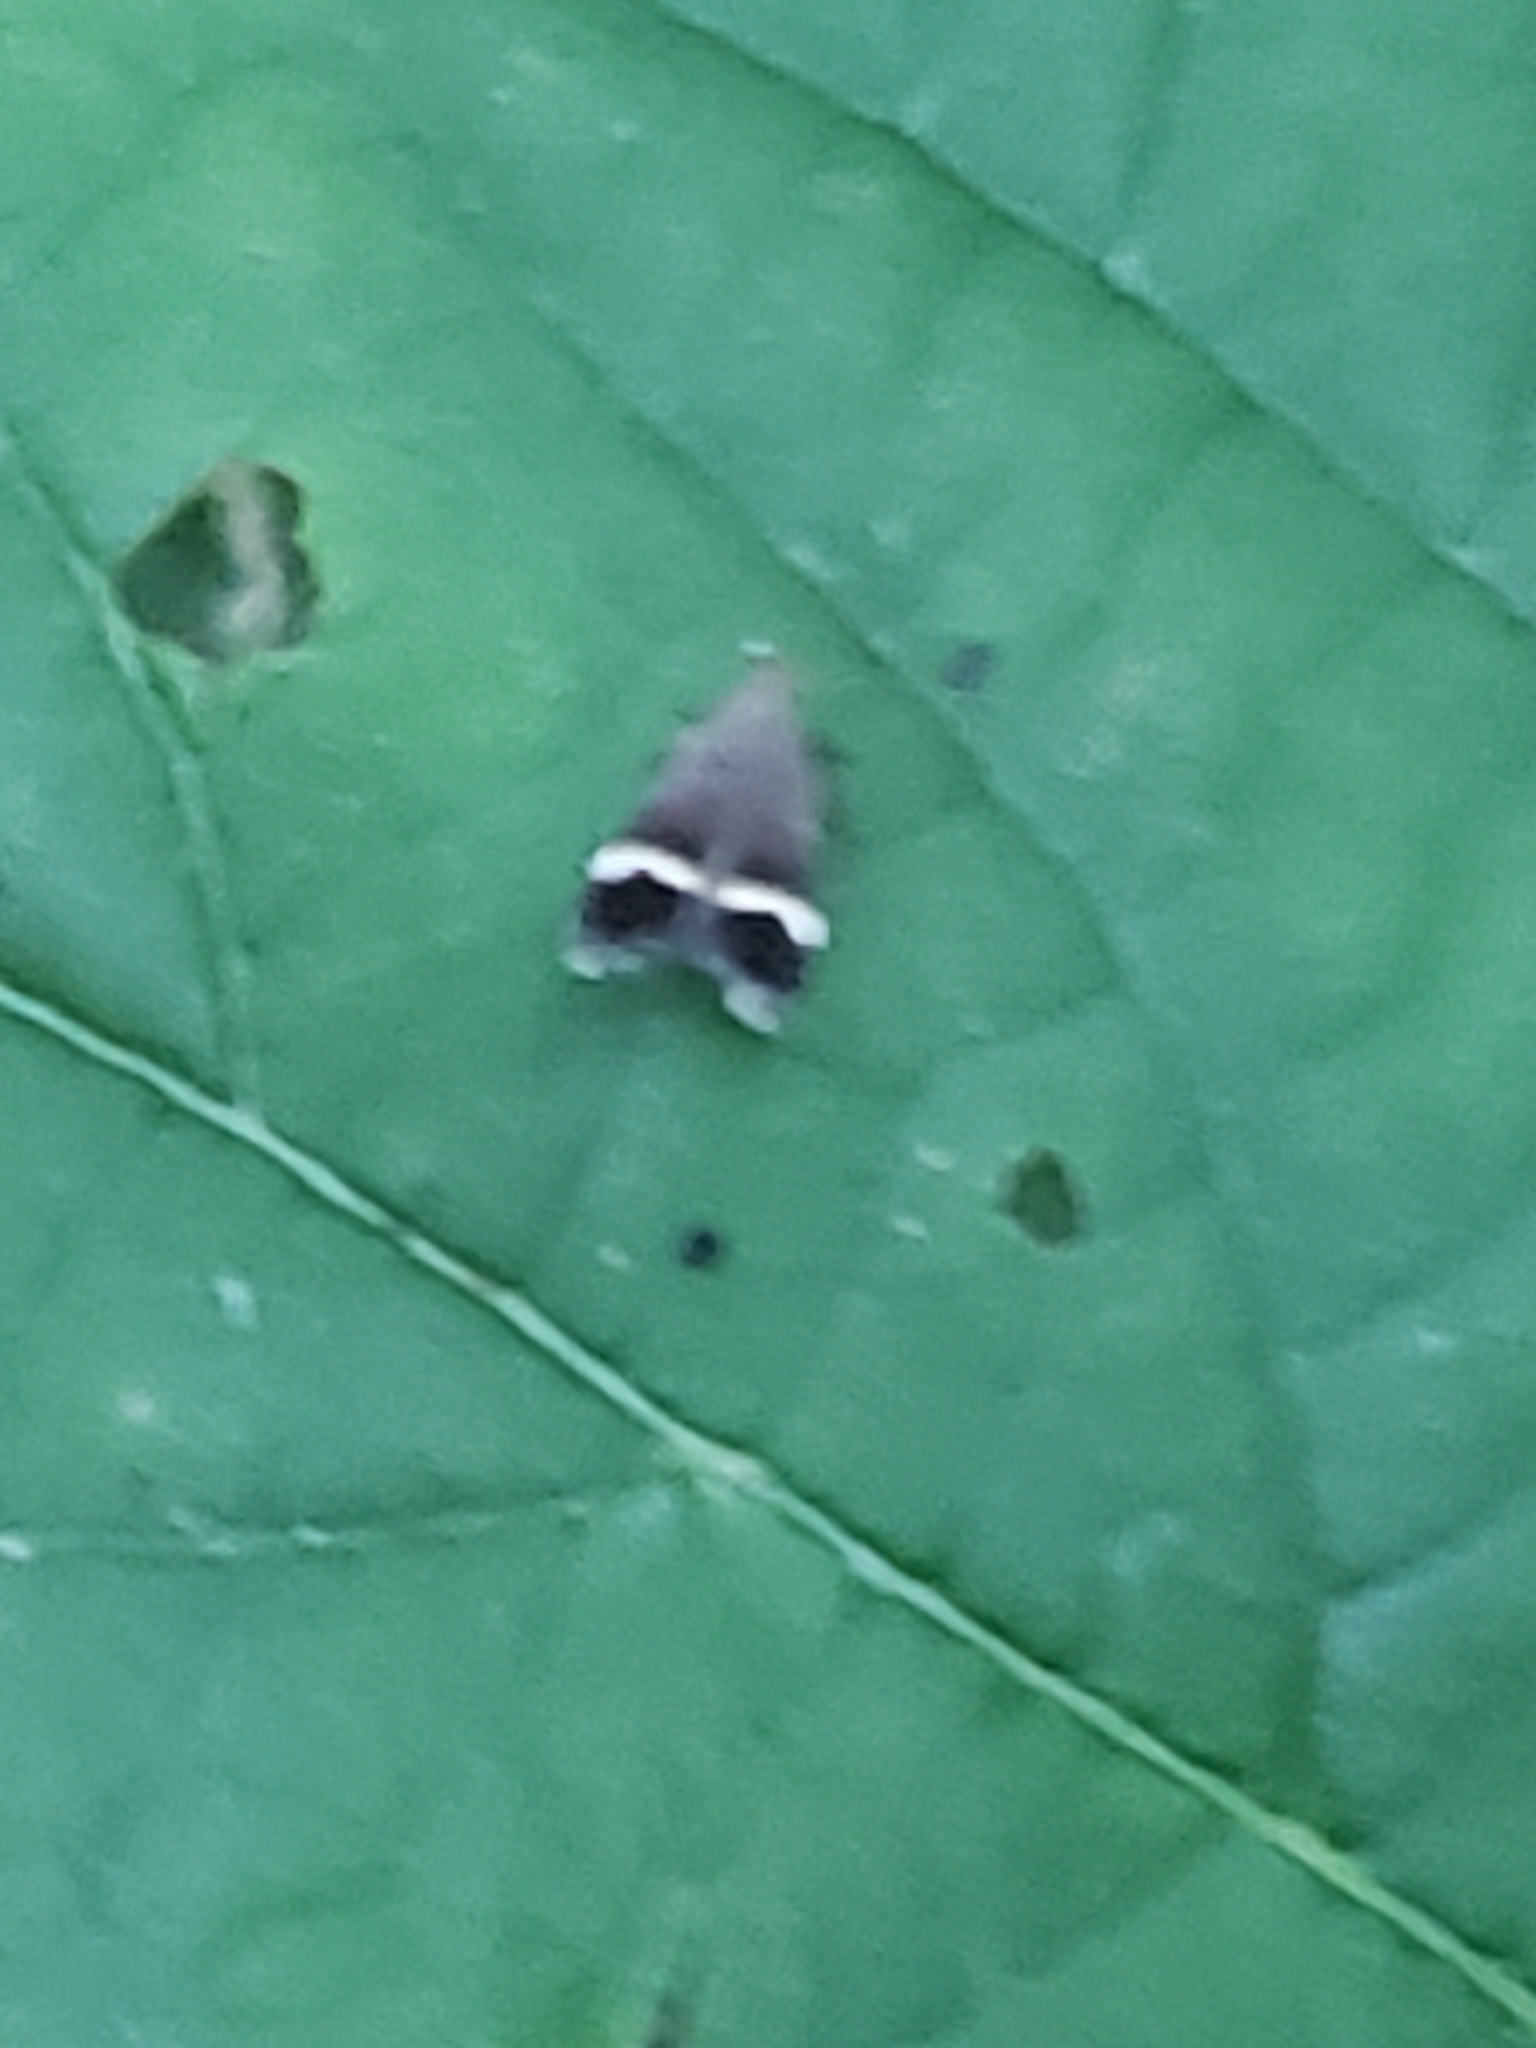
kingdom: Animalia
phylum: Arthropoda
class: Insecta
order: Lepidoptera
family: Gelechiidae
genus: Anacampsis
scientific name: Anacampsis agrimoniella
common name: Agrimony anacampsis moth
